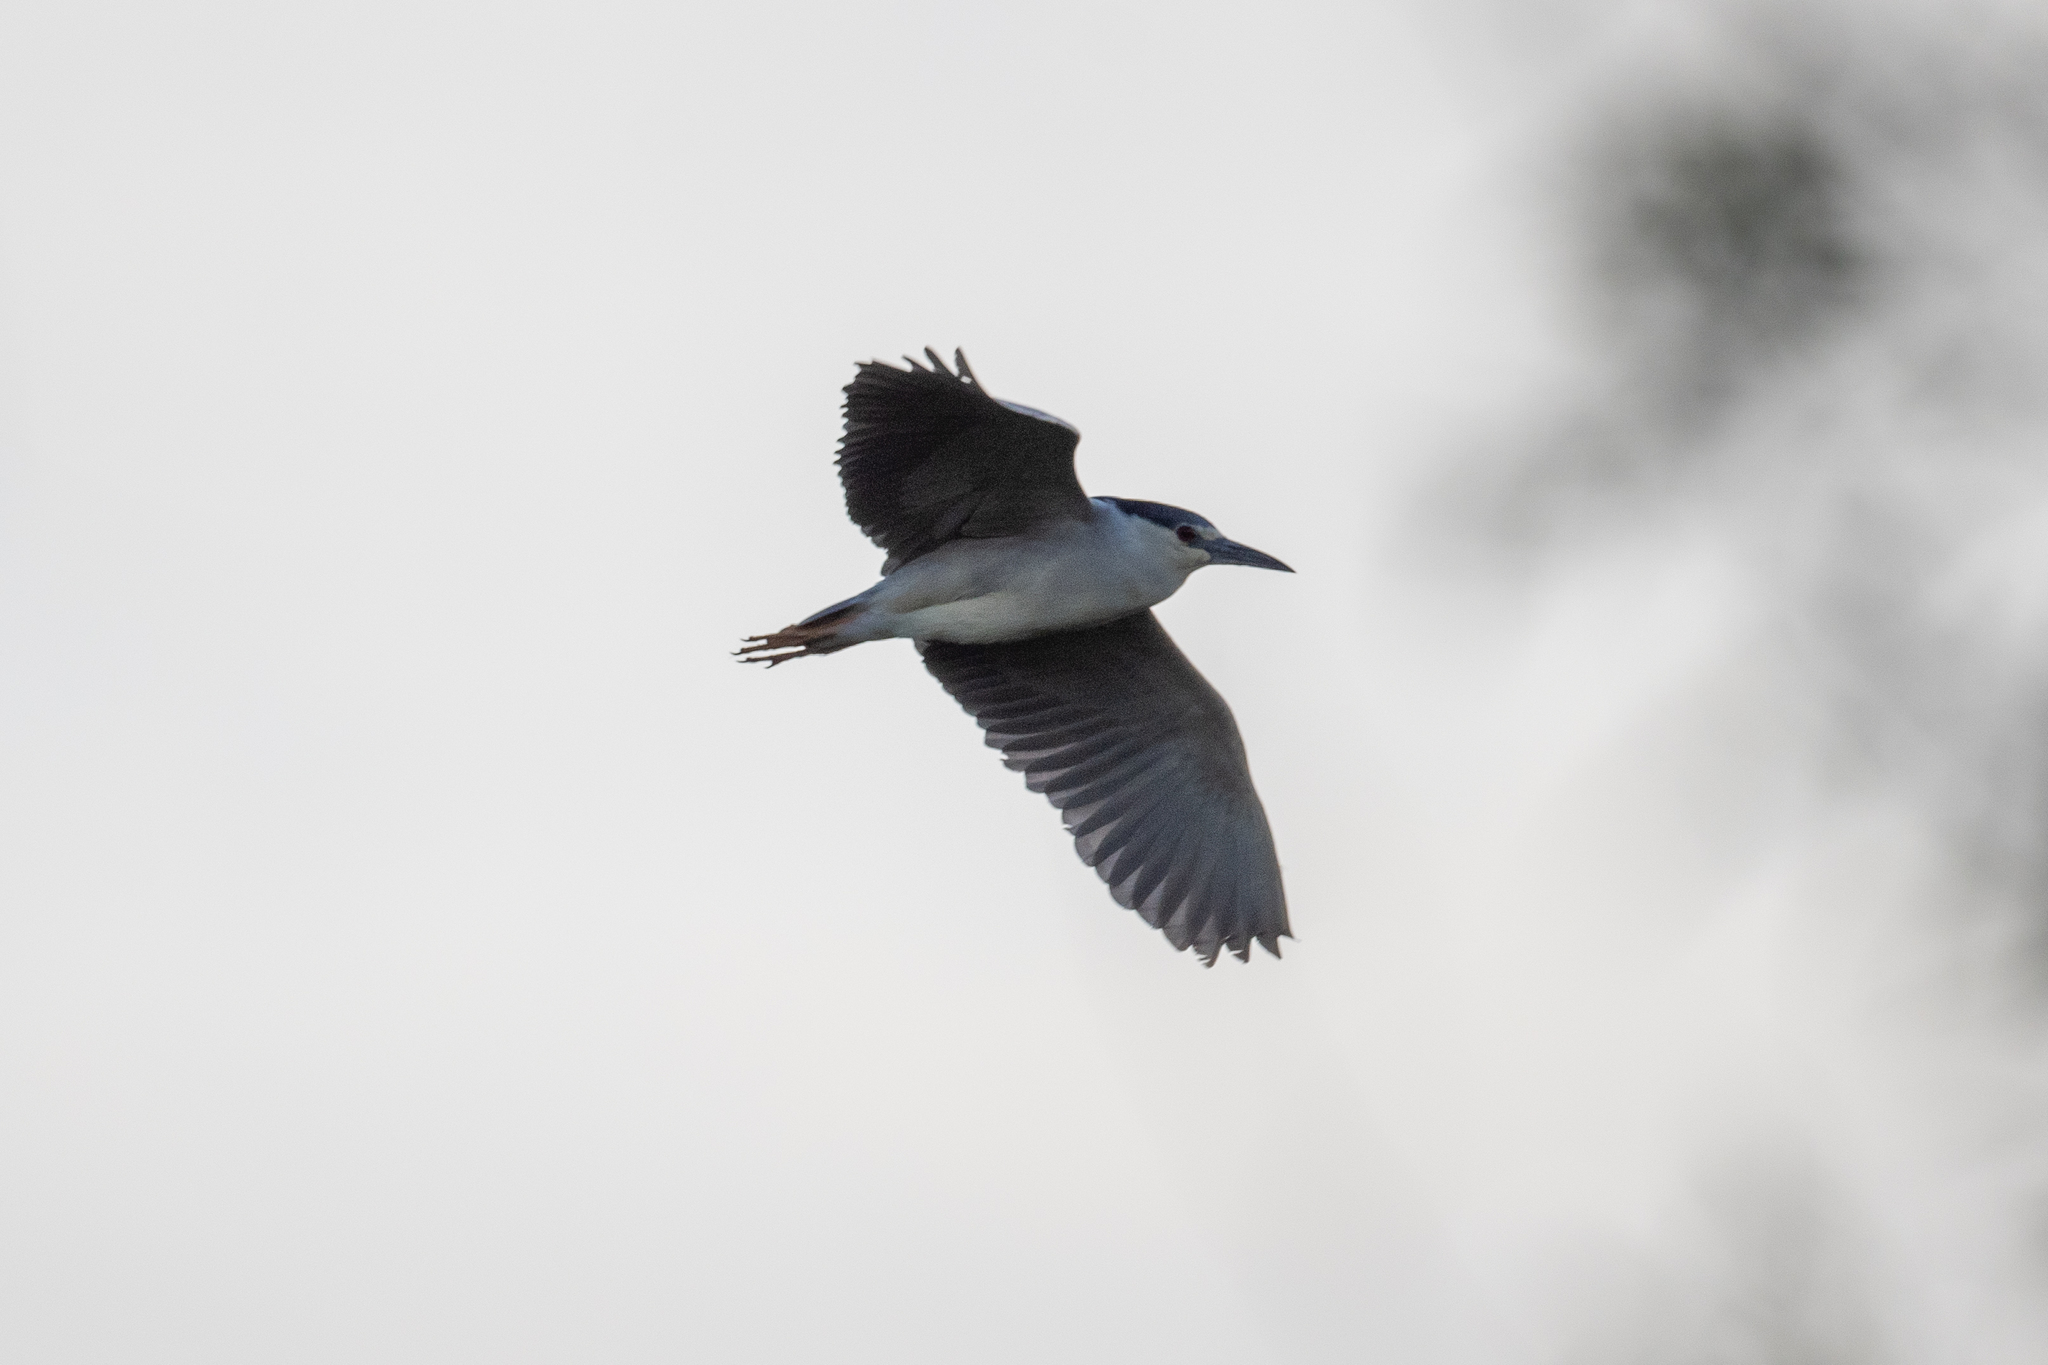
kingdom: Animalia
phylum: Chordata
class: Aves
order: Pelecaniformes
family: Ardeidae
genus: Nycticorax
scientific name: Nycticorax nycticorax
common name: Black-crowned night heron
